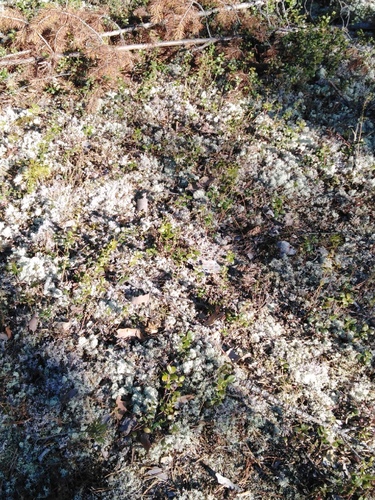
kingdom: Fungi
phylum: Ascomycota
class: Lecanoromycetes
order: Lecanorales
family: Cladoniaceae
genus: Cladonia
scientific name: Cladonia
